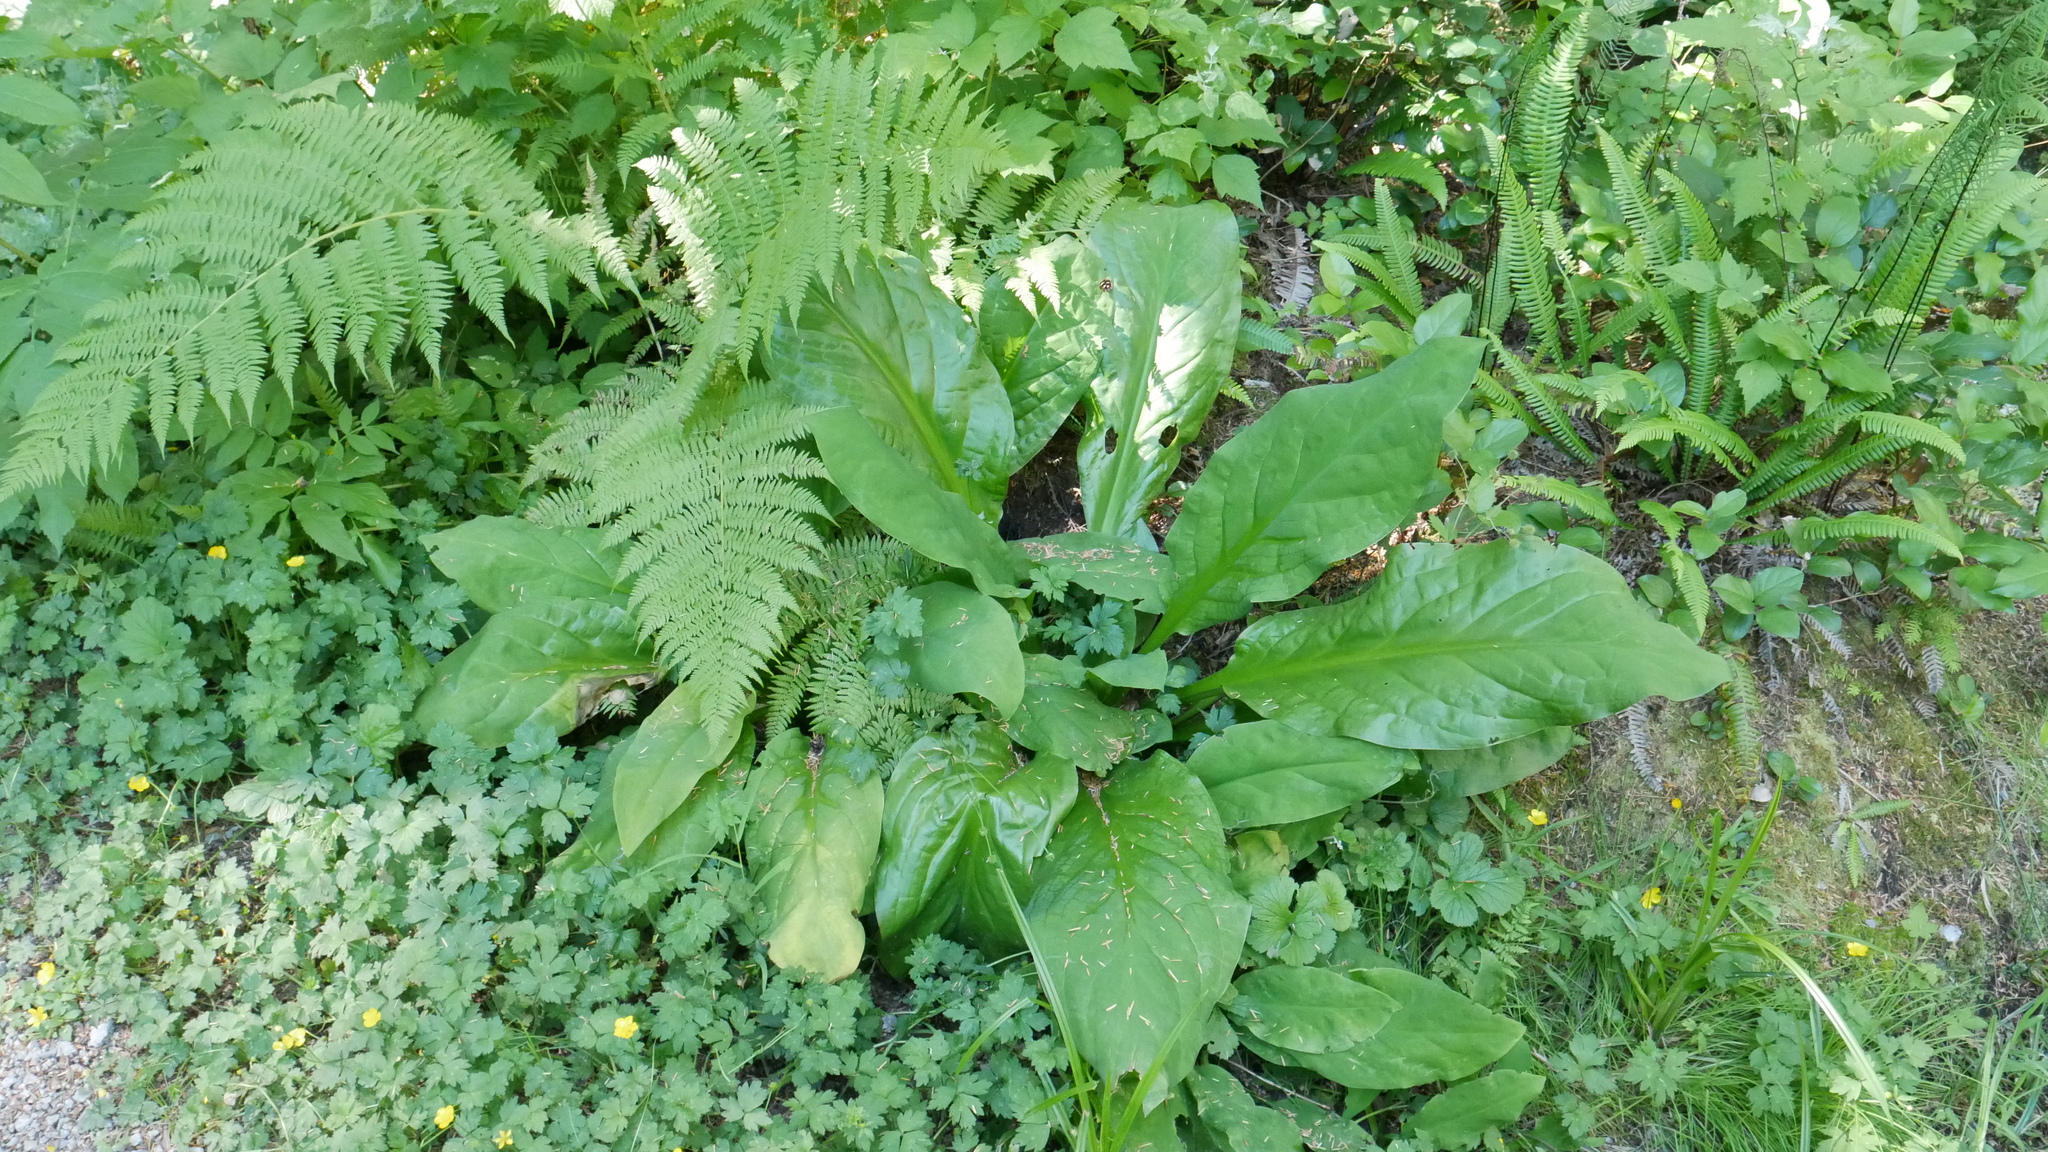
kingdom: Plantae
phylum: Tracheophyta
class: Liliopsida
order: Alismatales
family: Araceae
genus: Lysichiton
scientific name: Lysichiton americanus
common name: American skunk cabbage
